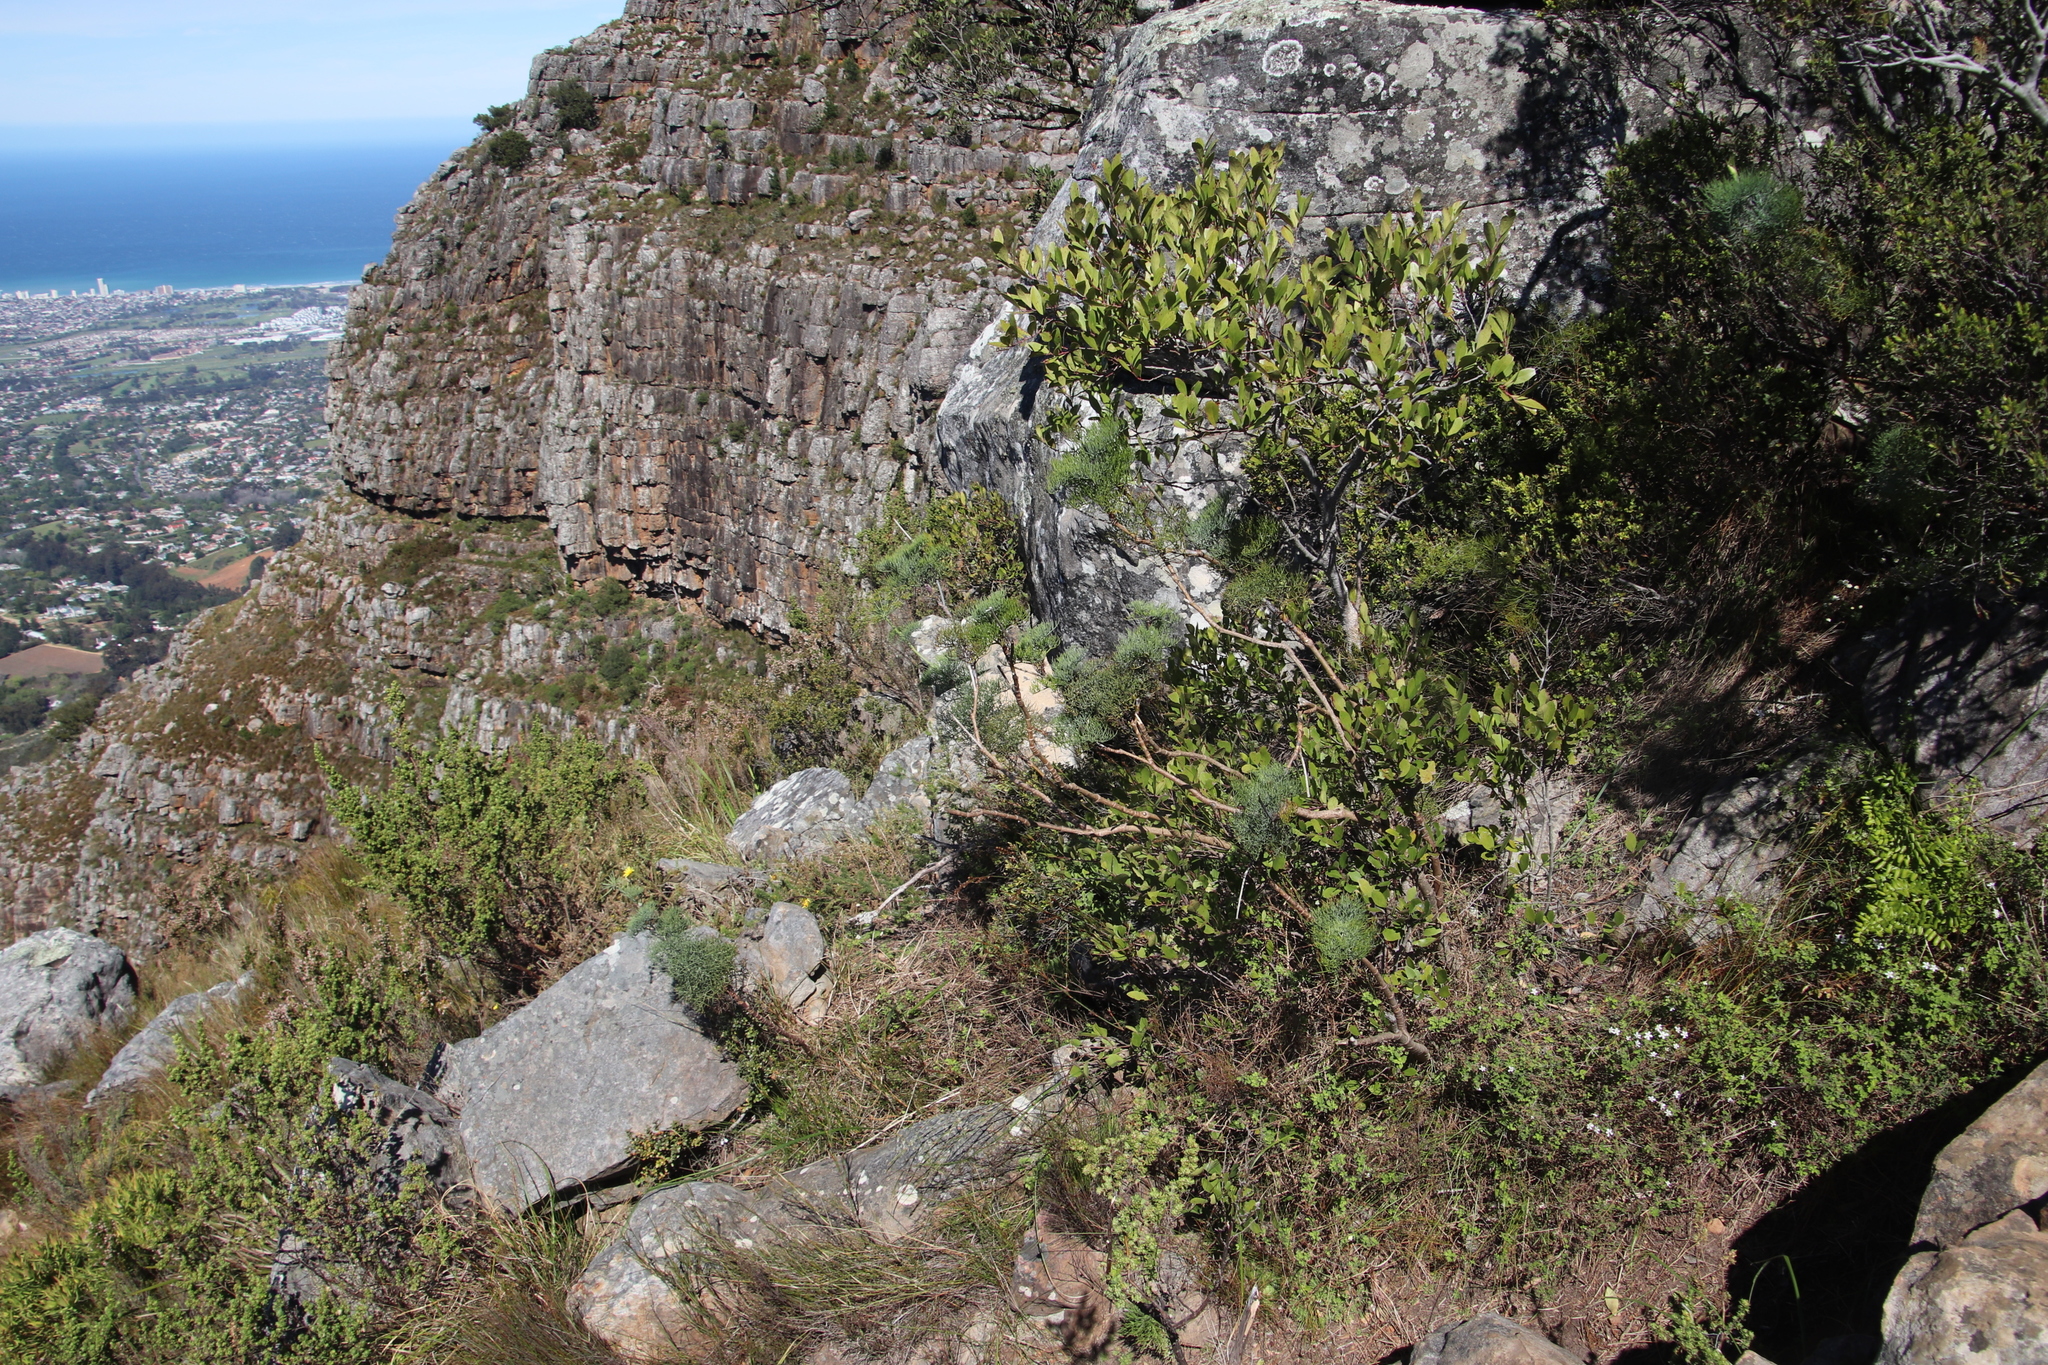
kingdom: Plantae
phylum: Tracheophyta
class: Magnoliopsida
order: Apiales
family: Apiaceae
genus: Notobubon
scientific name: Notobubon capense
